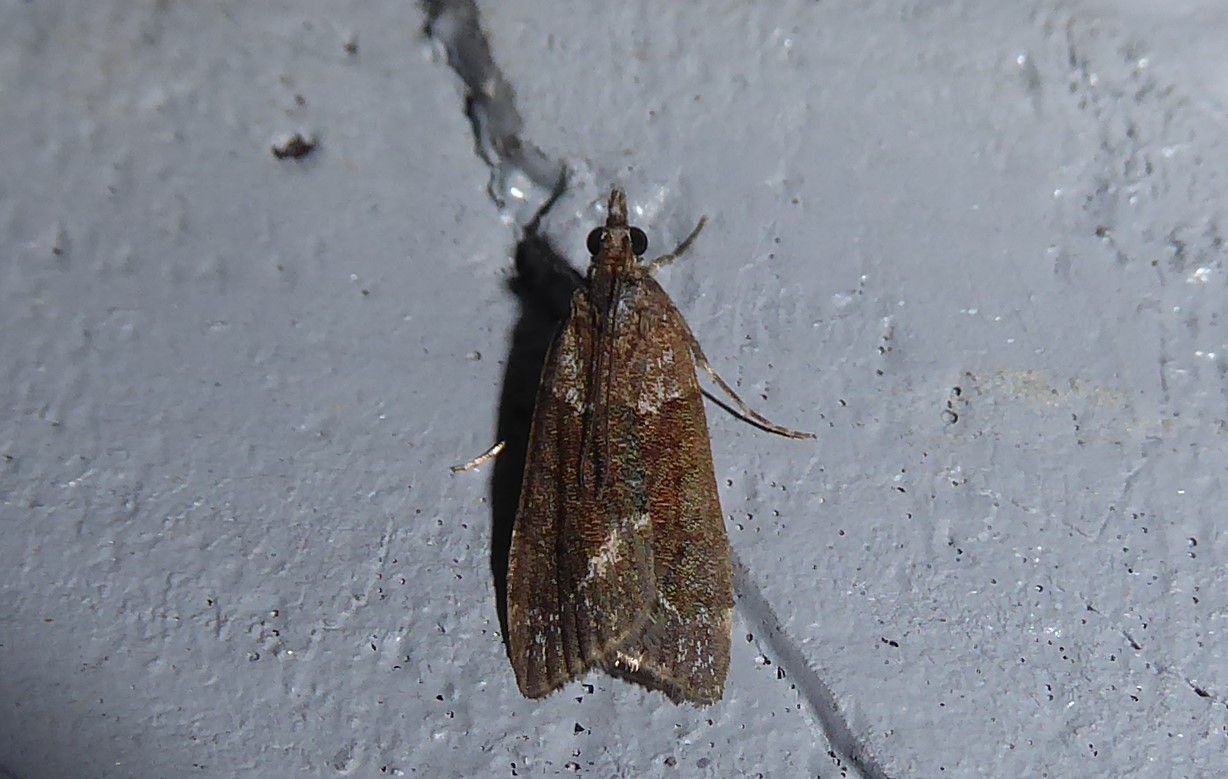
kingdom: Animalia
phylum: Arthropoda
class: Insecta
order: Lepidoptera
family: Crambidae
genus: Eudonia
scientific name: Eudonia submarginalis
